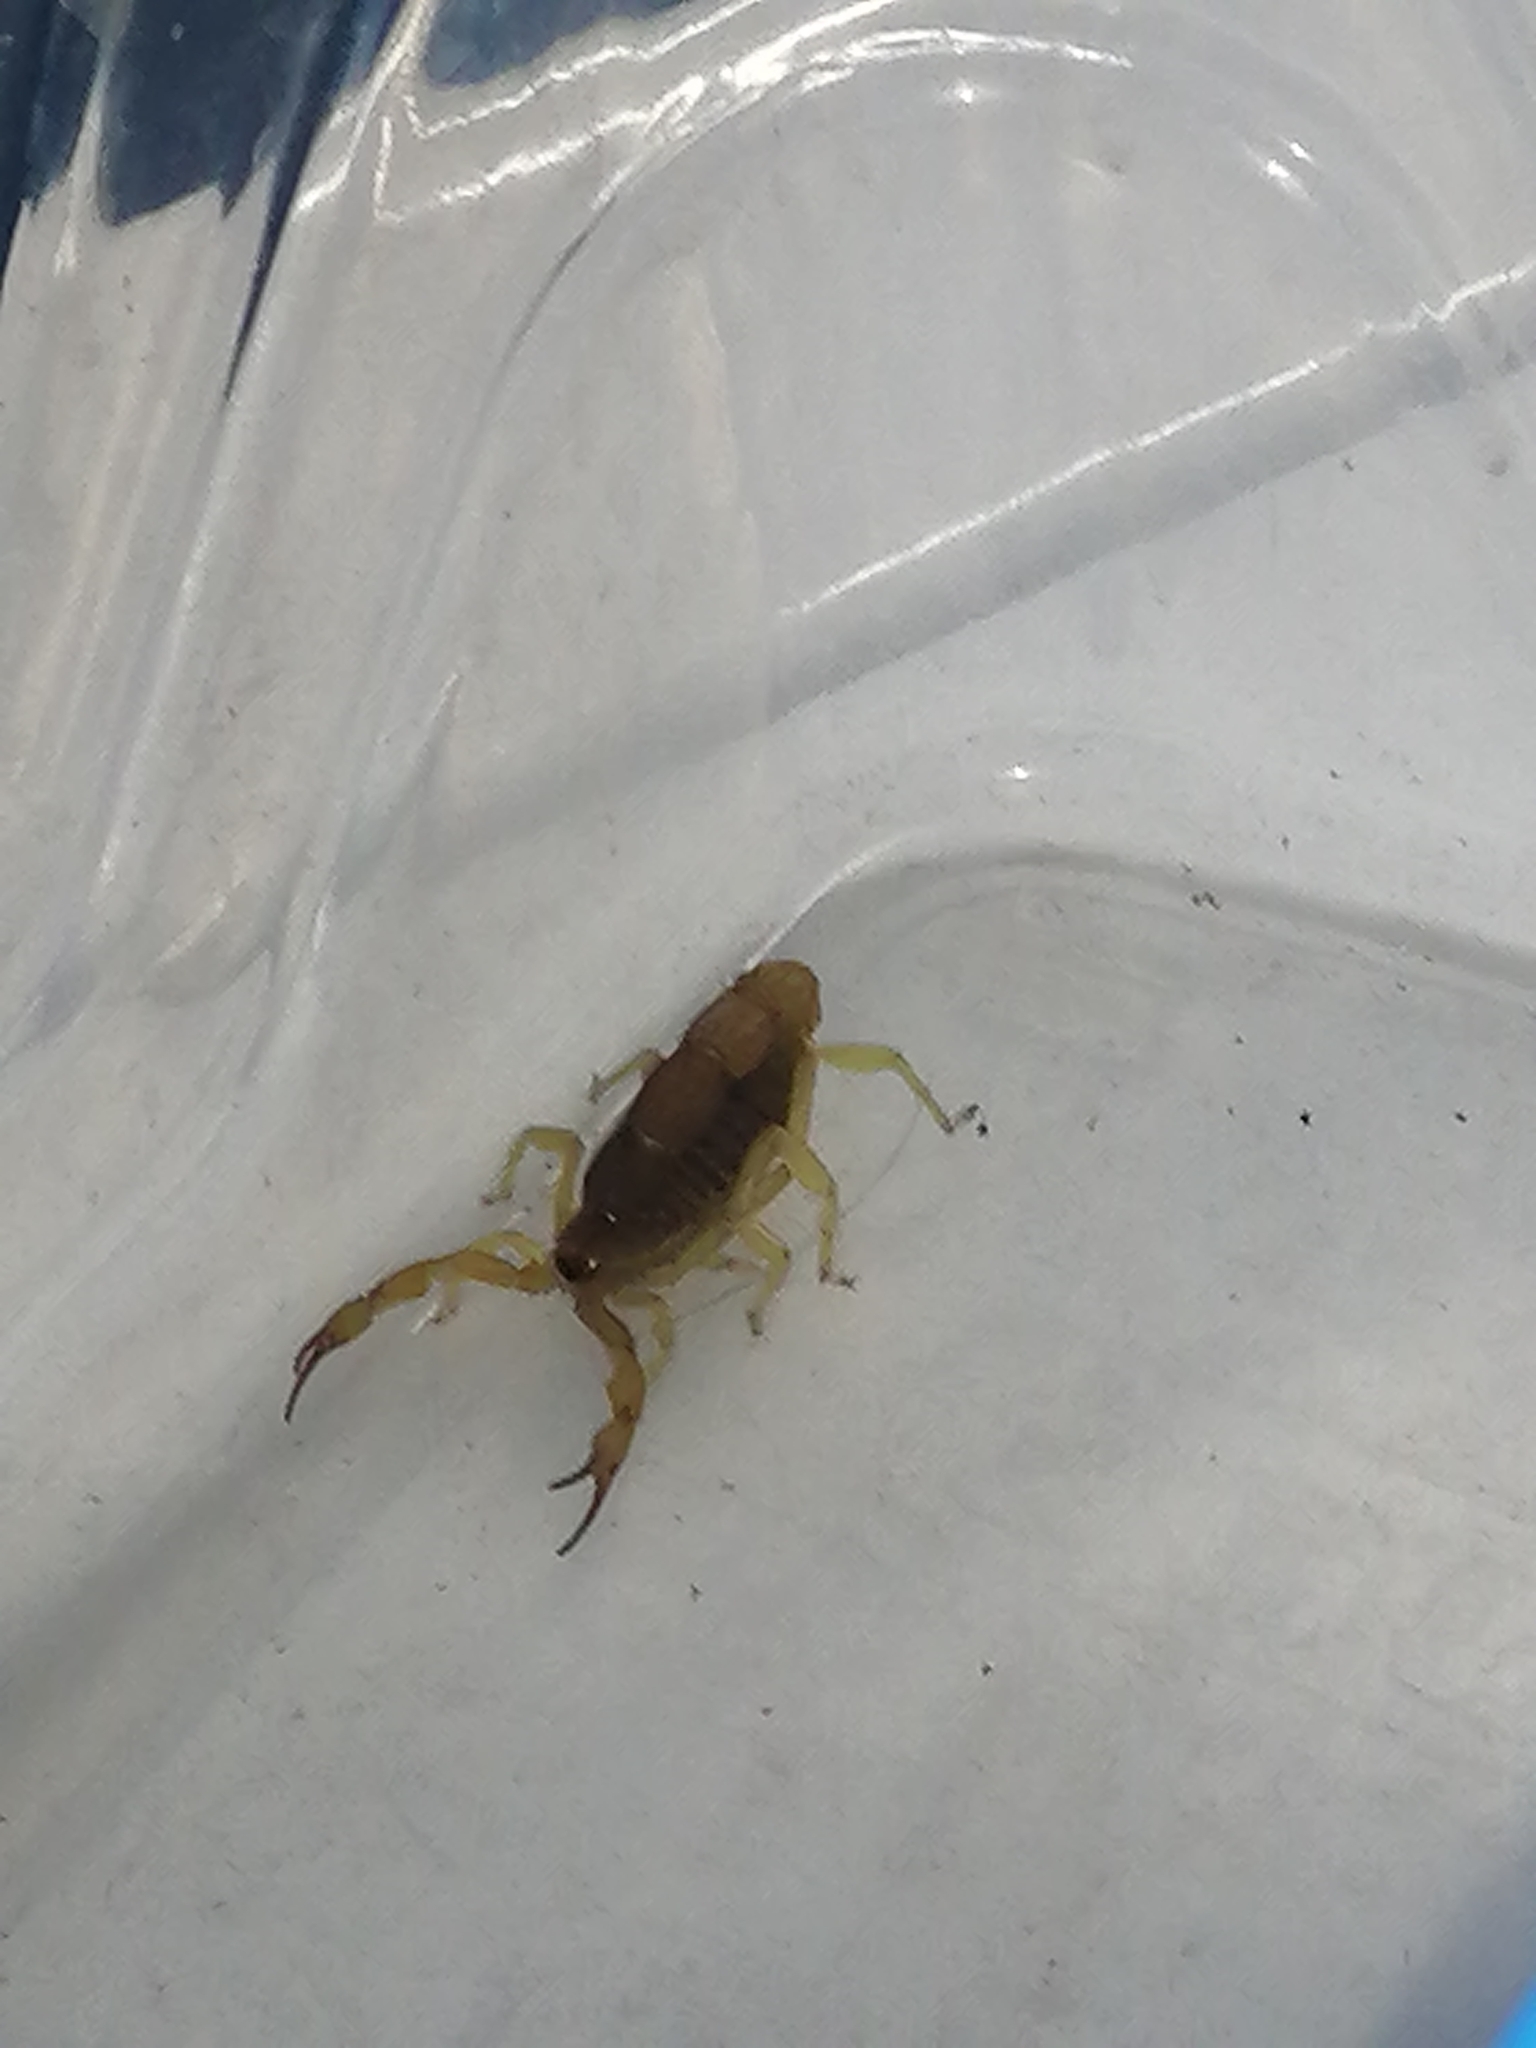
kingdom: Animalia
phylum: Arthropoda
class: Arachnida
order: Scorpiones
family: Buthidae
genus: Parabuthus
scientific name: Parabuthus capensis
